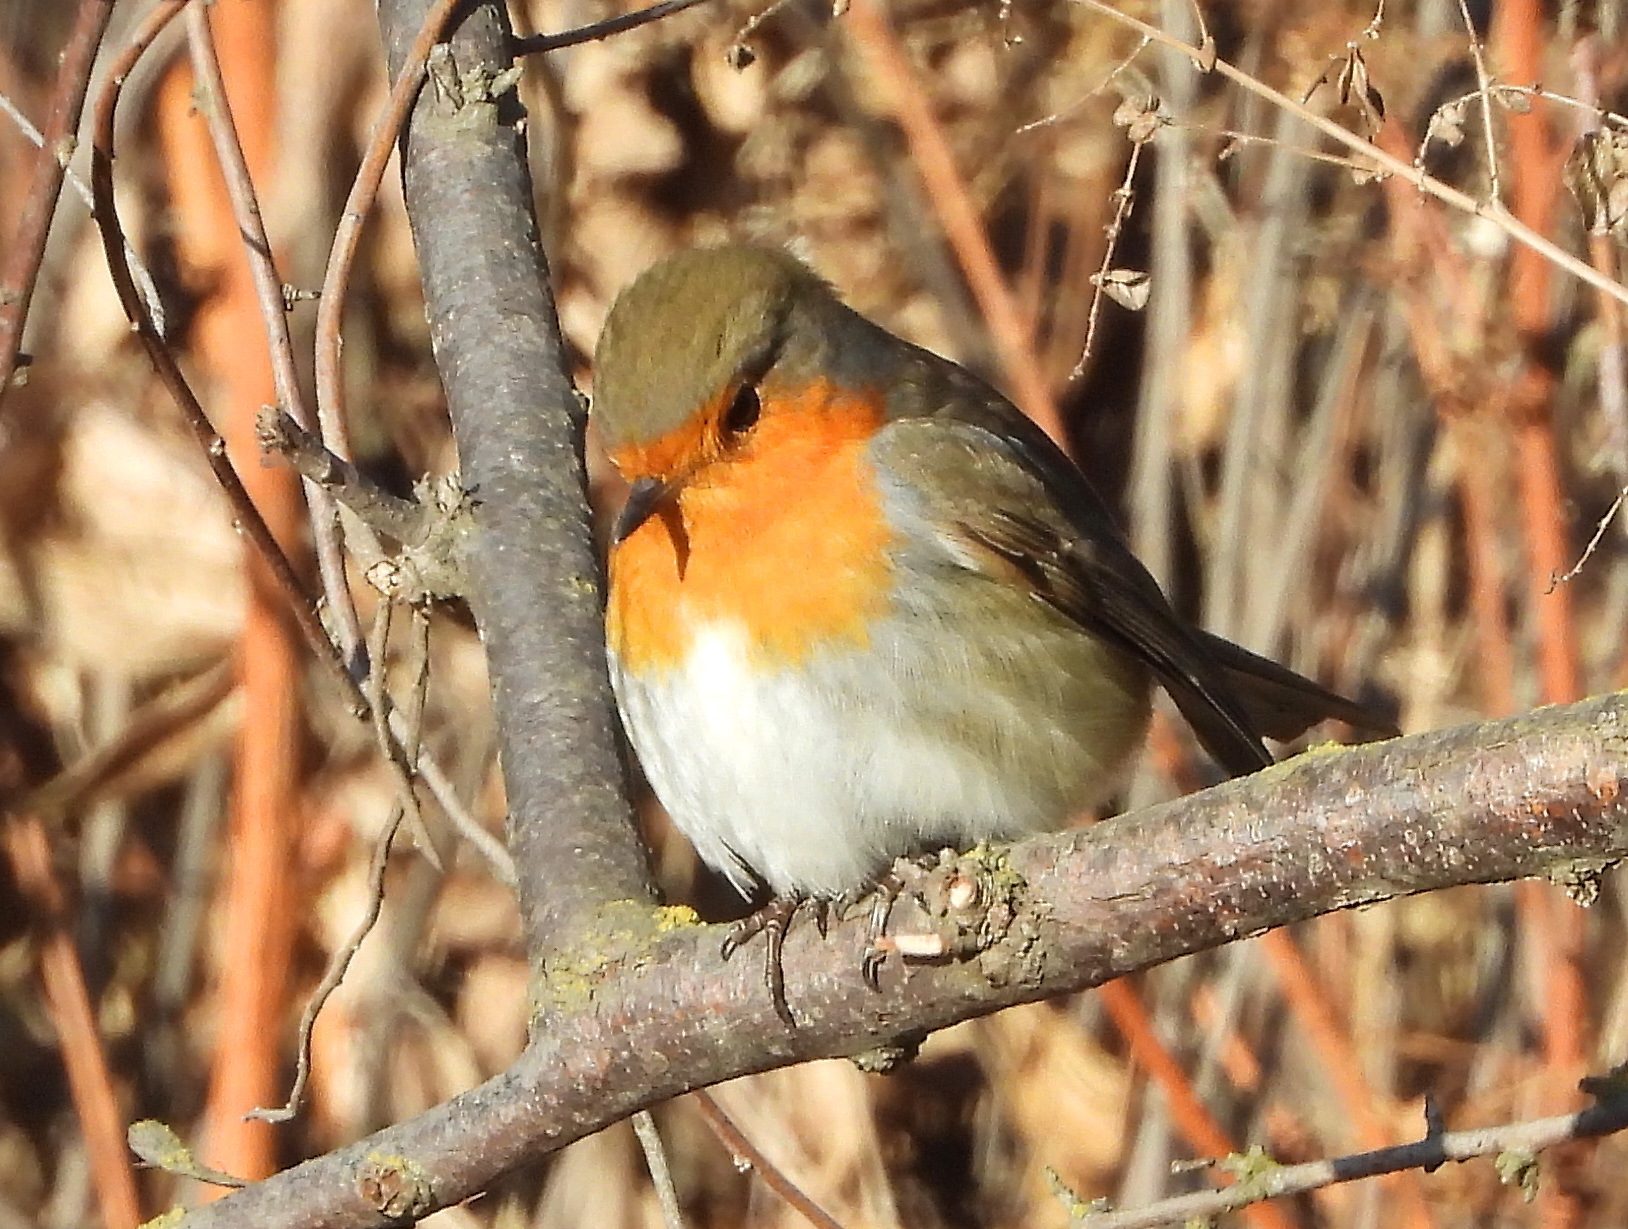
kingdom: Animalia
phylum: Chordata
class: Aves
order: Passeriformes
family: Muscicapidae
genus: Erithacus
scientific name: Erithacus rubecula
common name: European robin
